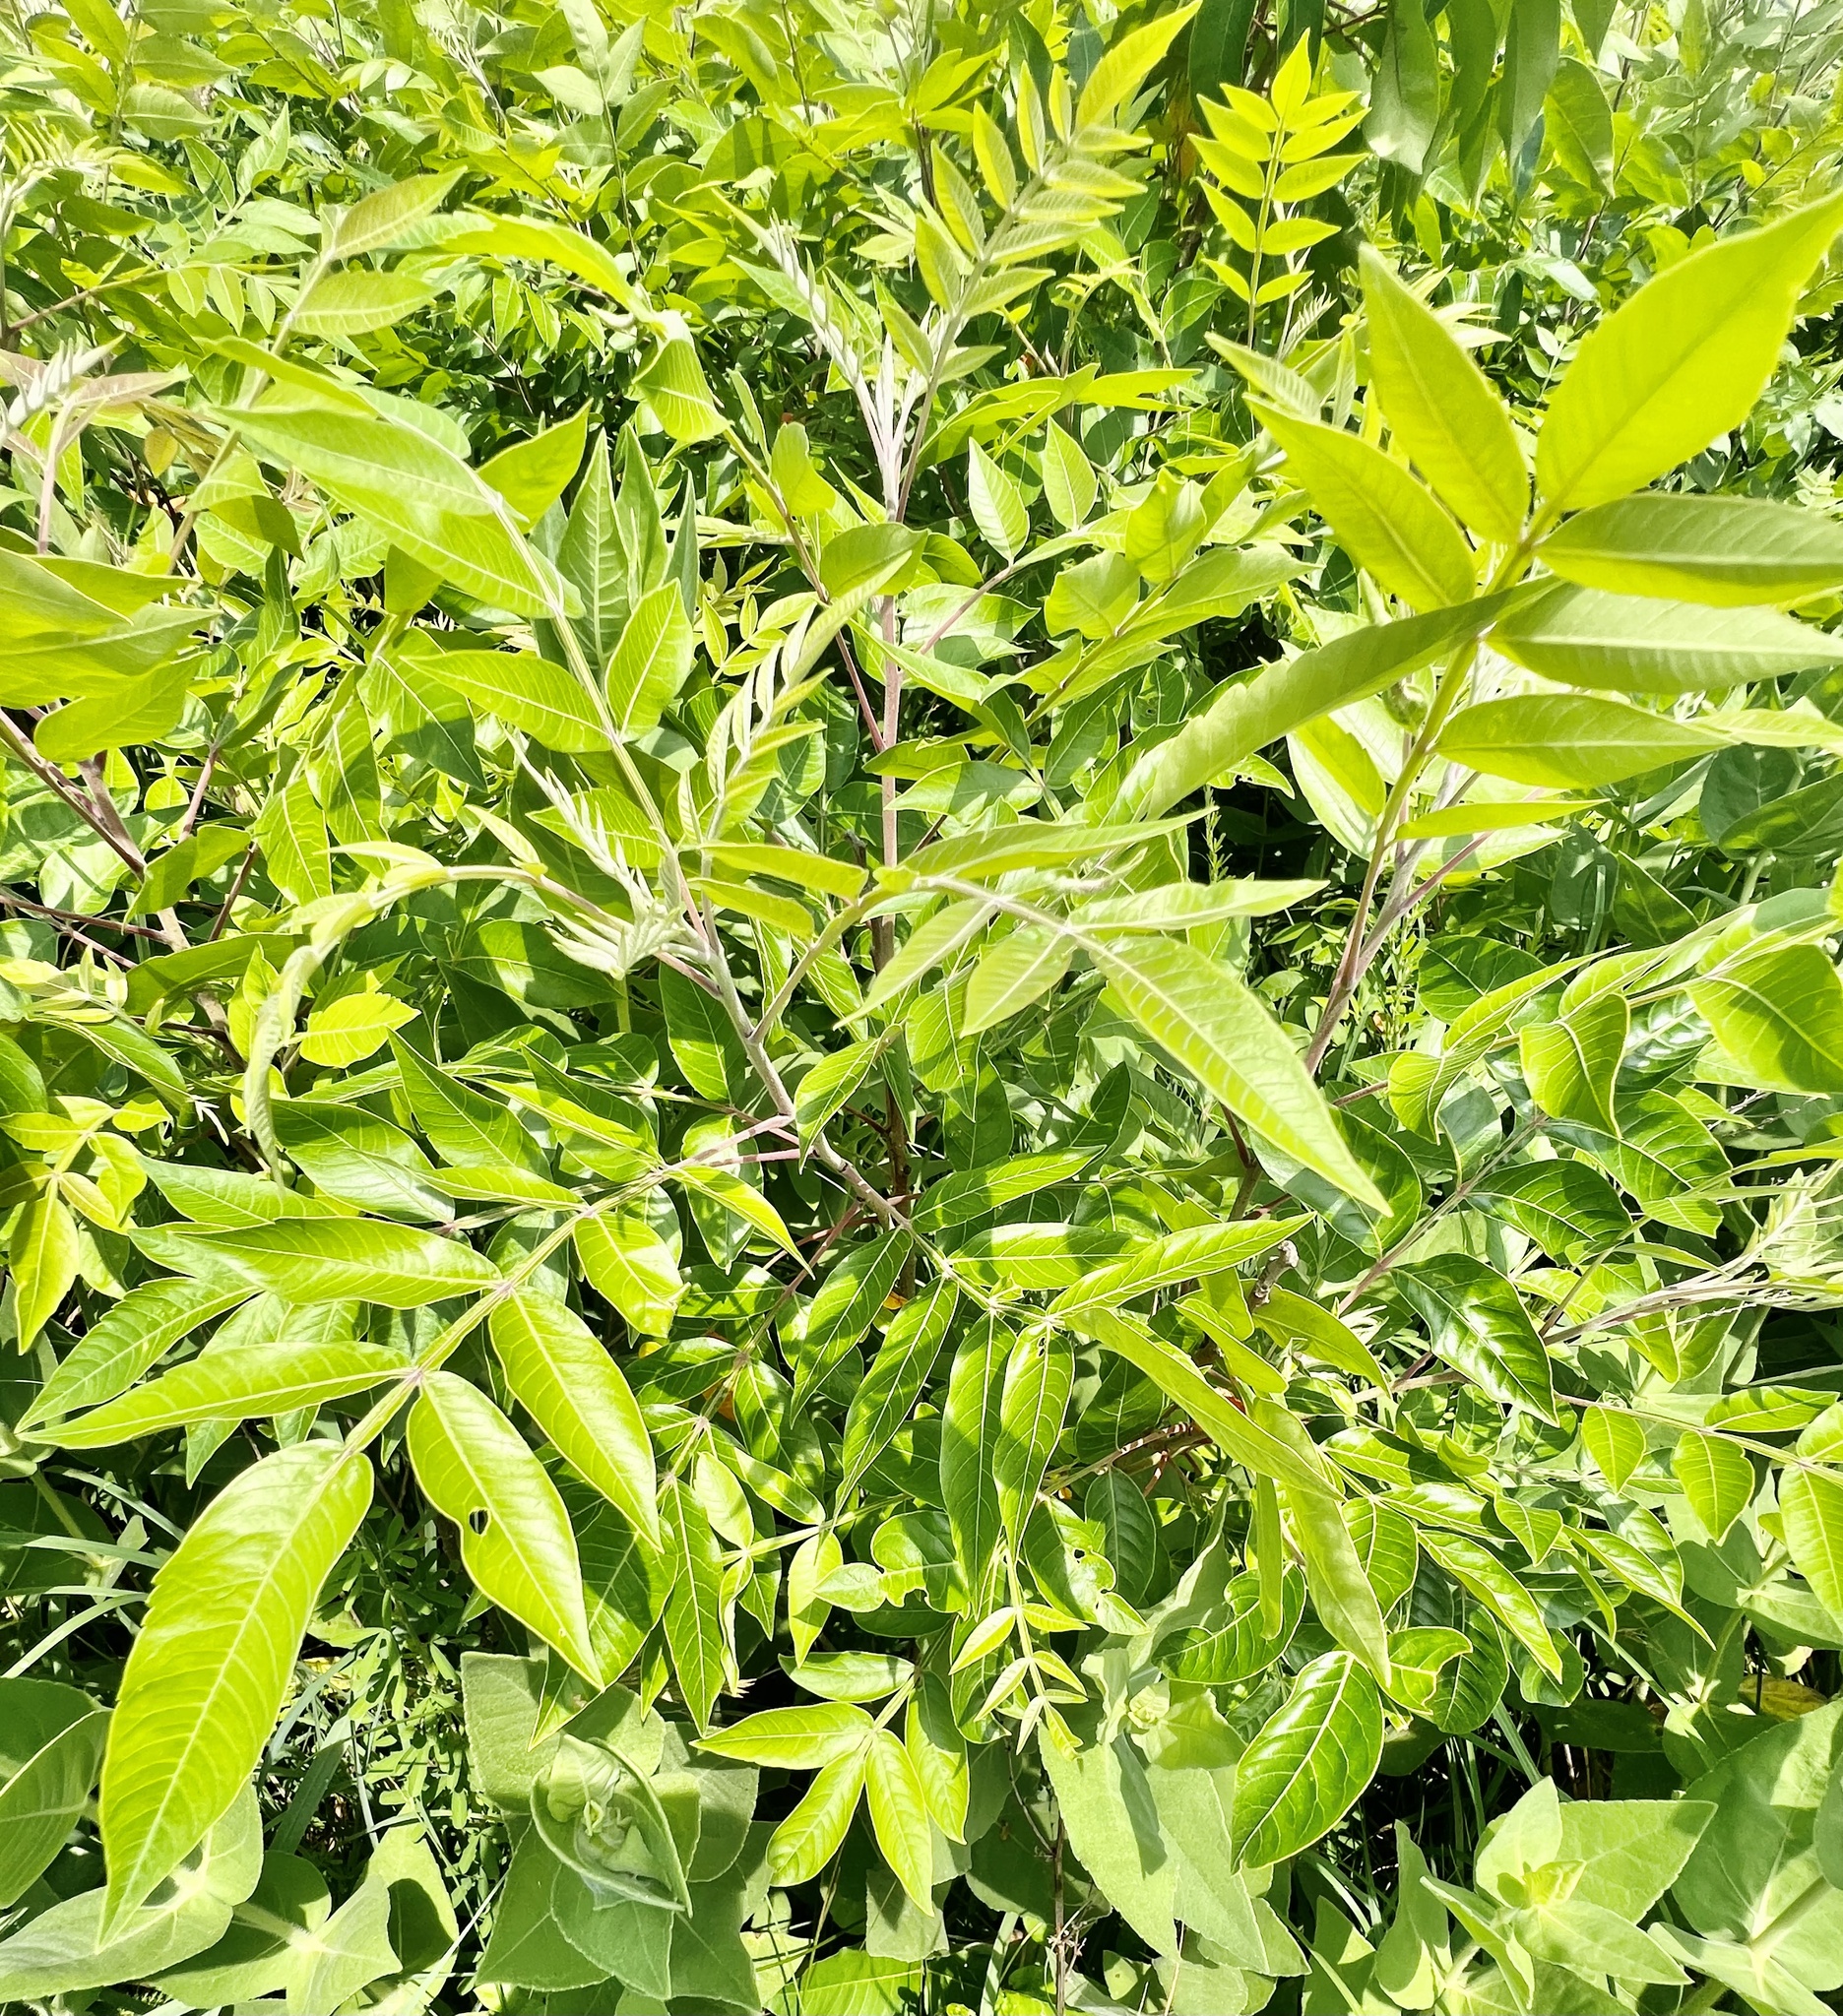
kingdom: Plantae
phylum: Tracheophyta
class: Magnoliopsida
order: Sapindales
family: Anacardiaceae
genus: Rhus
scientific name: Rhus copallina
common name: Shining sumac
